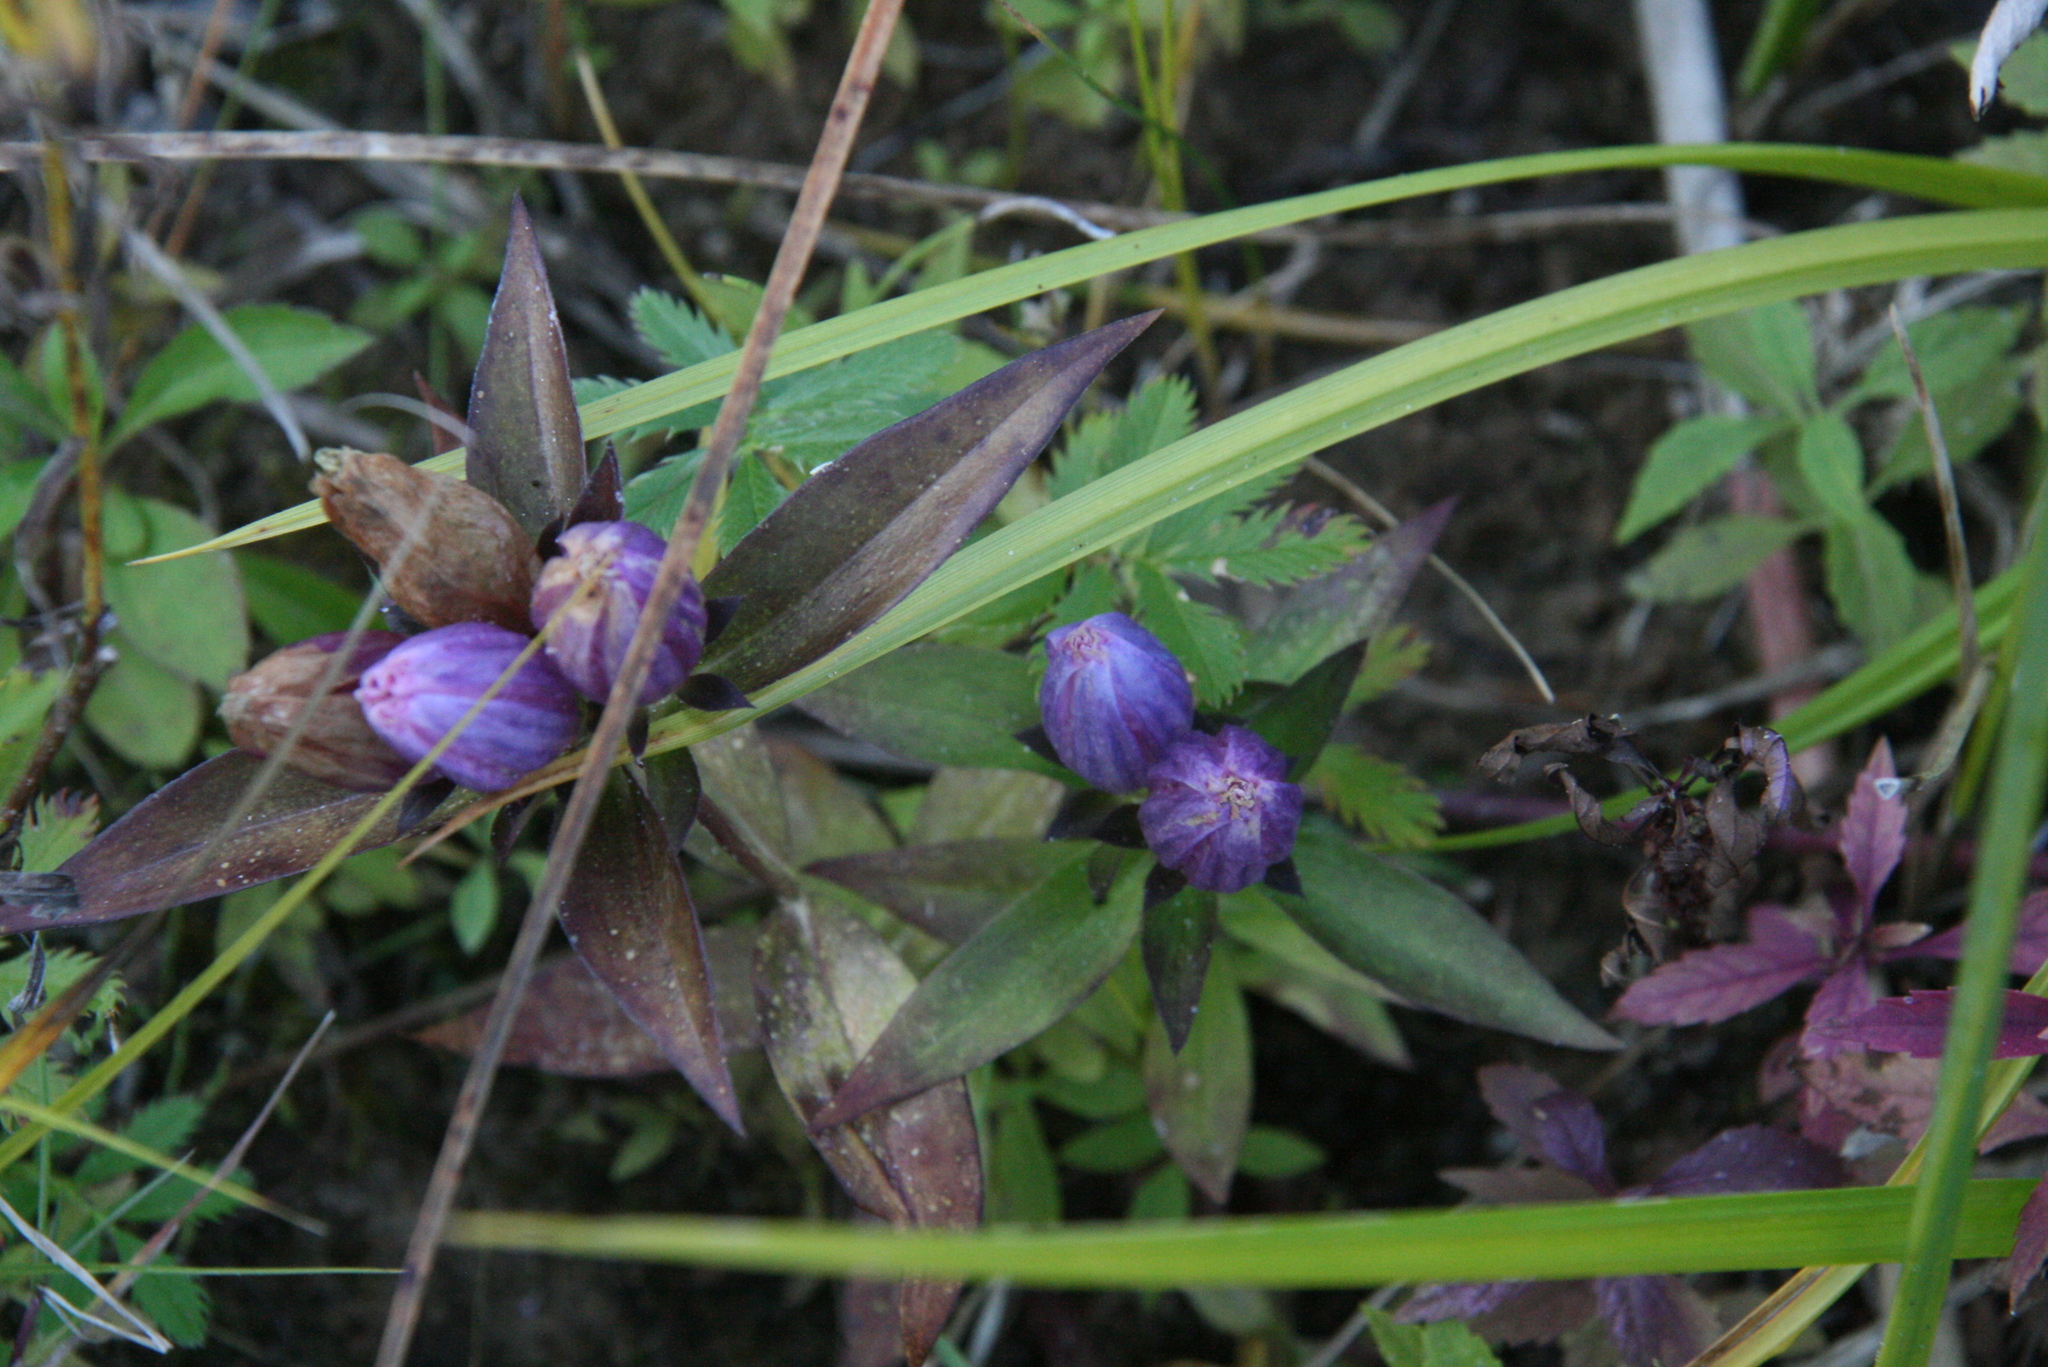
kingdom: Plantae
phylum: Tracheophyta
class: Magnoliopsida
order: Gentianales
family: Gentianaceae
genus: Gentiana
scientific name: Gentiana andrewsii
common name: Bottle gentian
